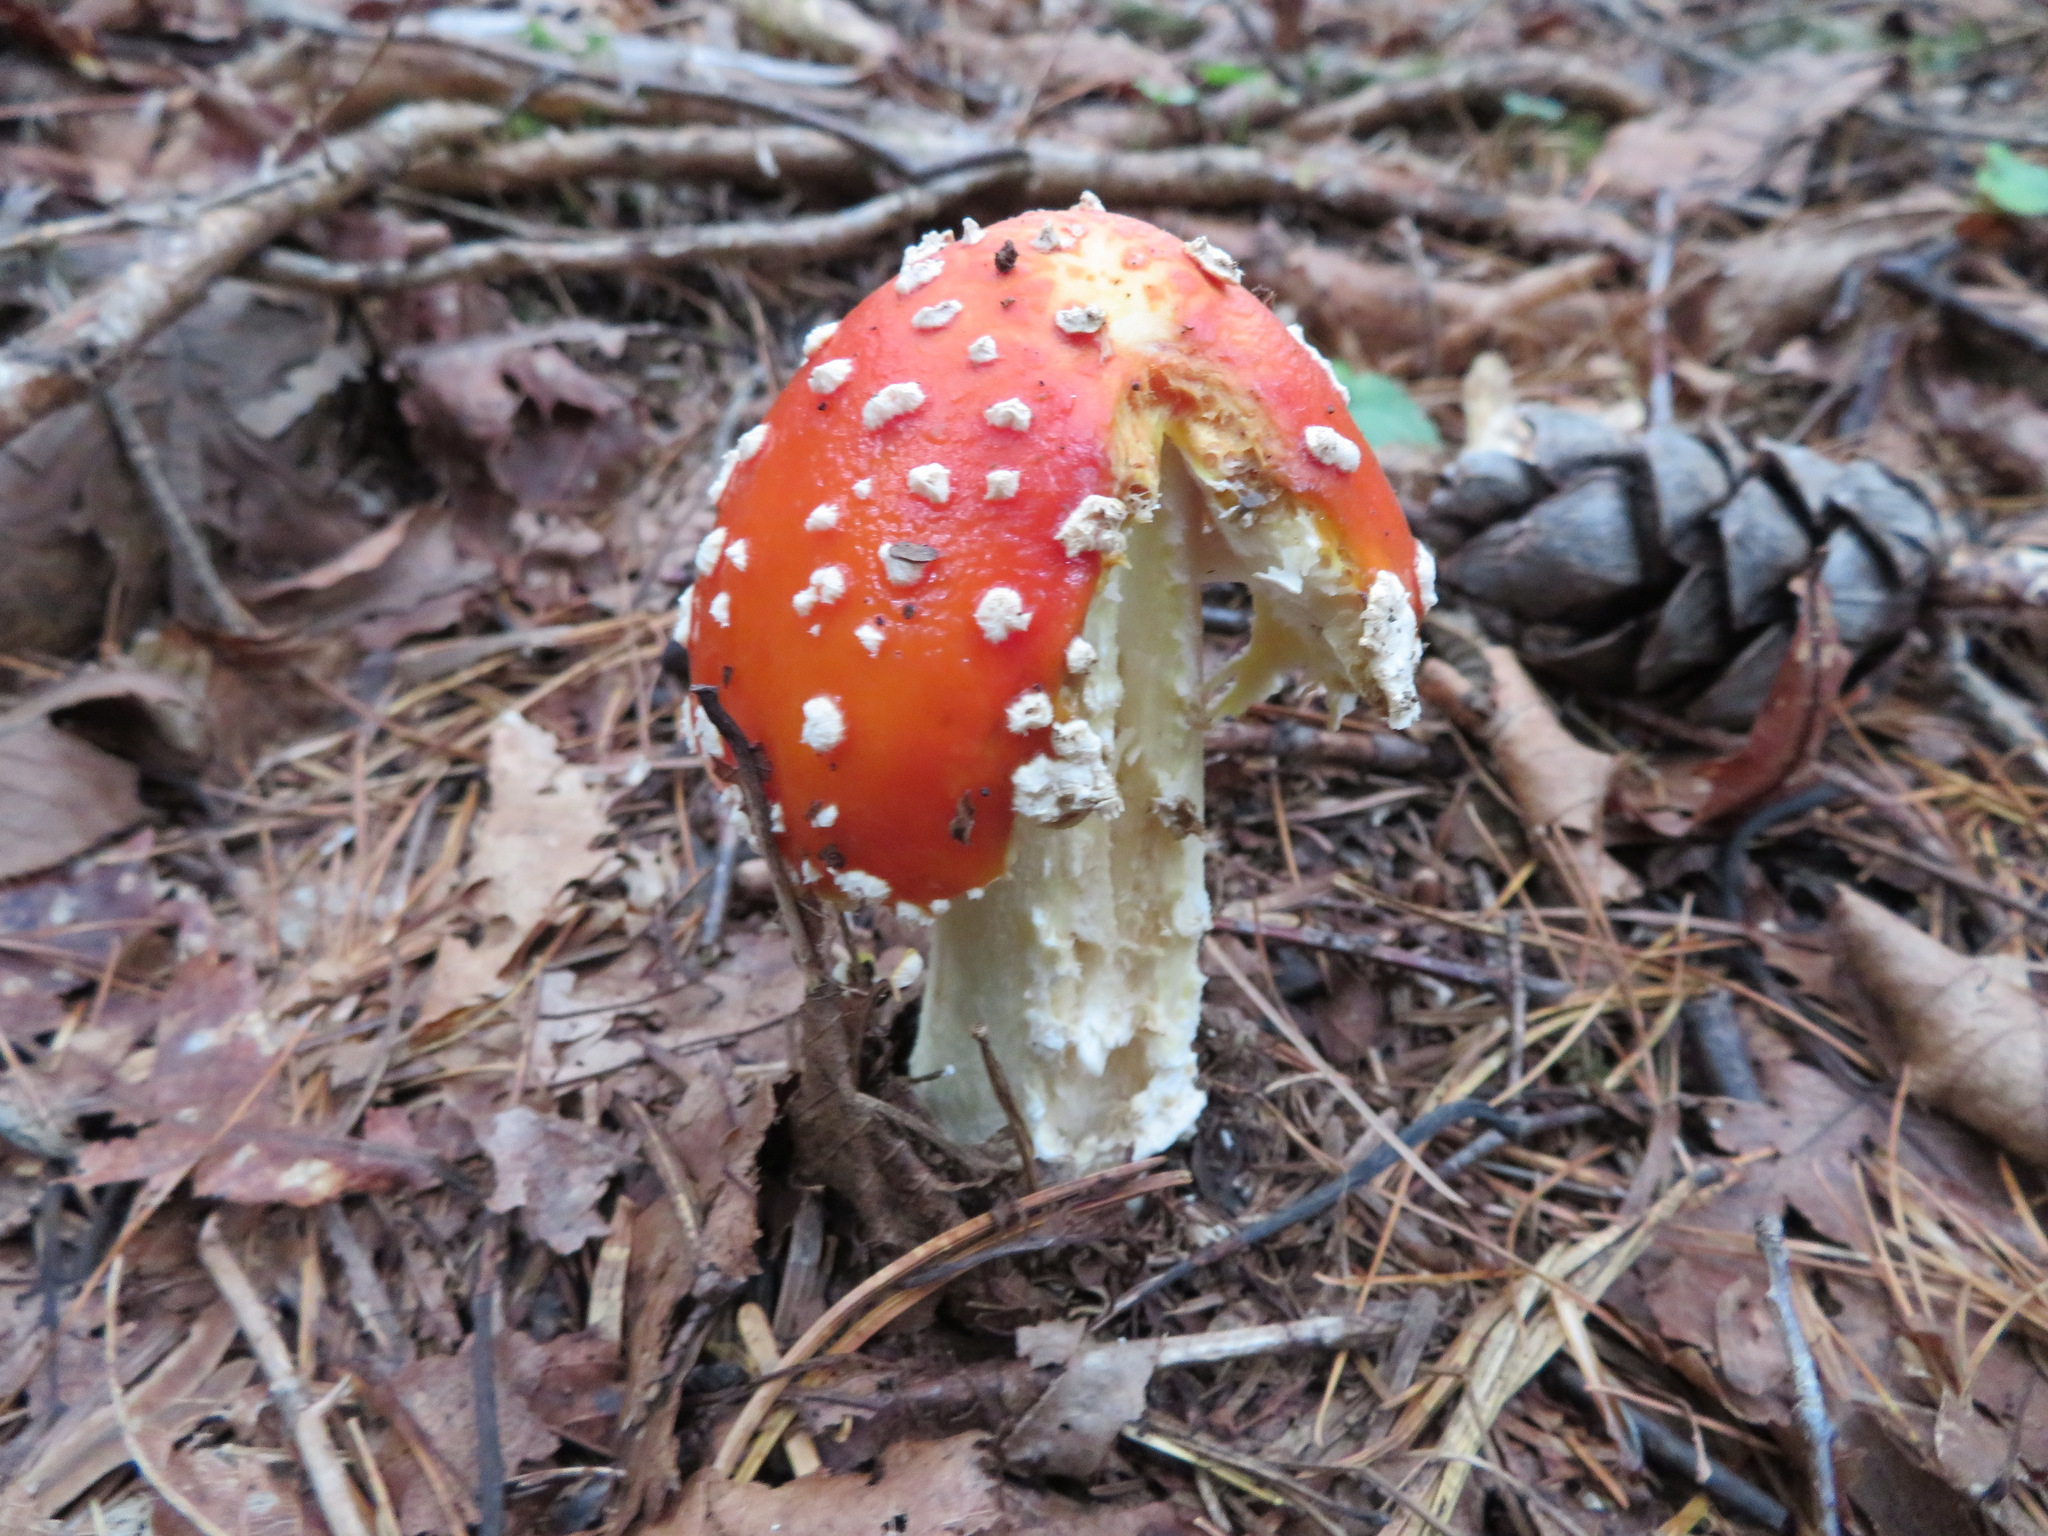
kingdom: Fungi
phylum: Basidiomycota
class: Agaricomycetes
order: Agaricales
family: Amanitaceae
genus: Amanita
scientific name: Amanita muscaria
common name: Fly agaric
